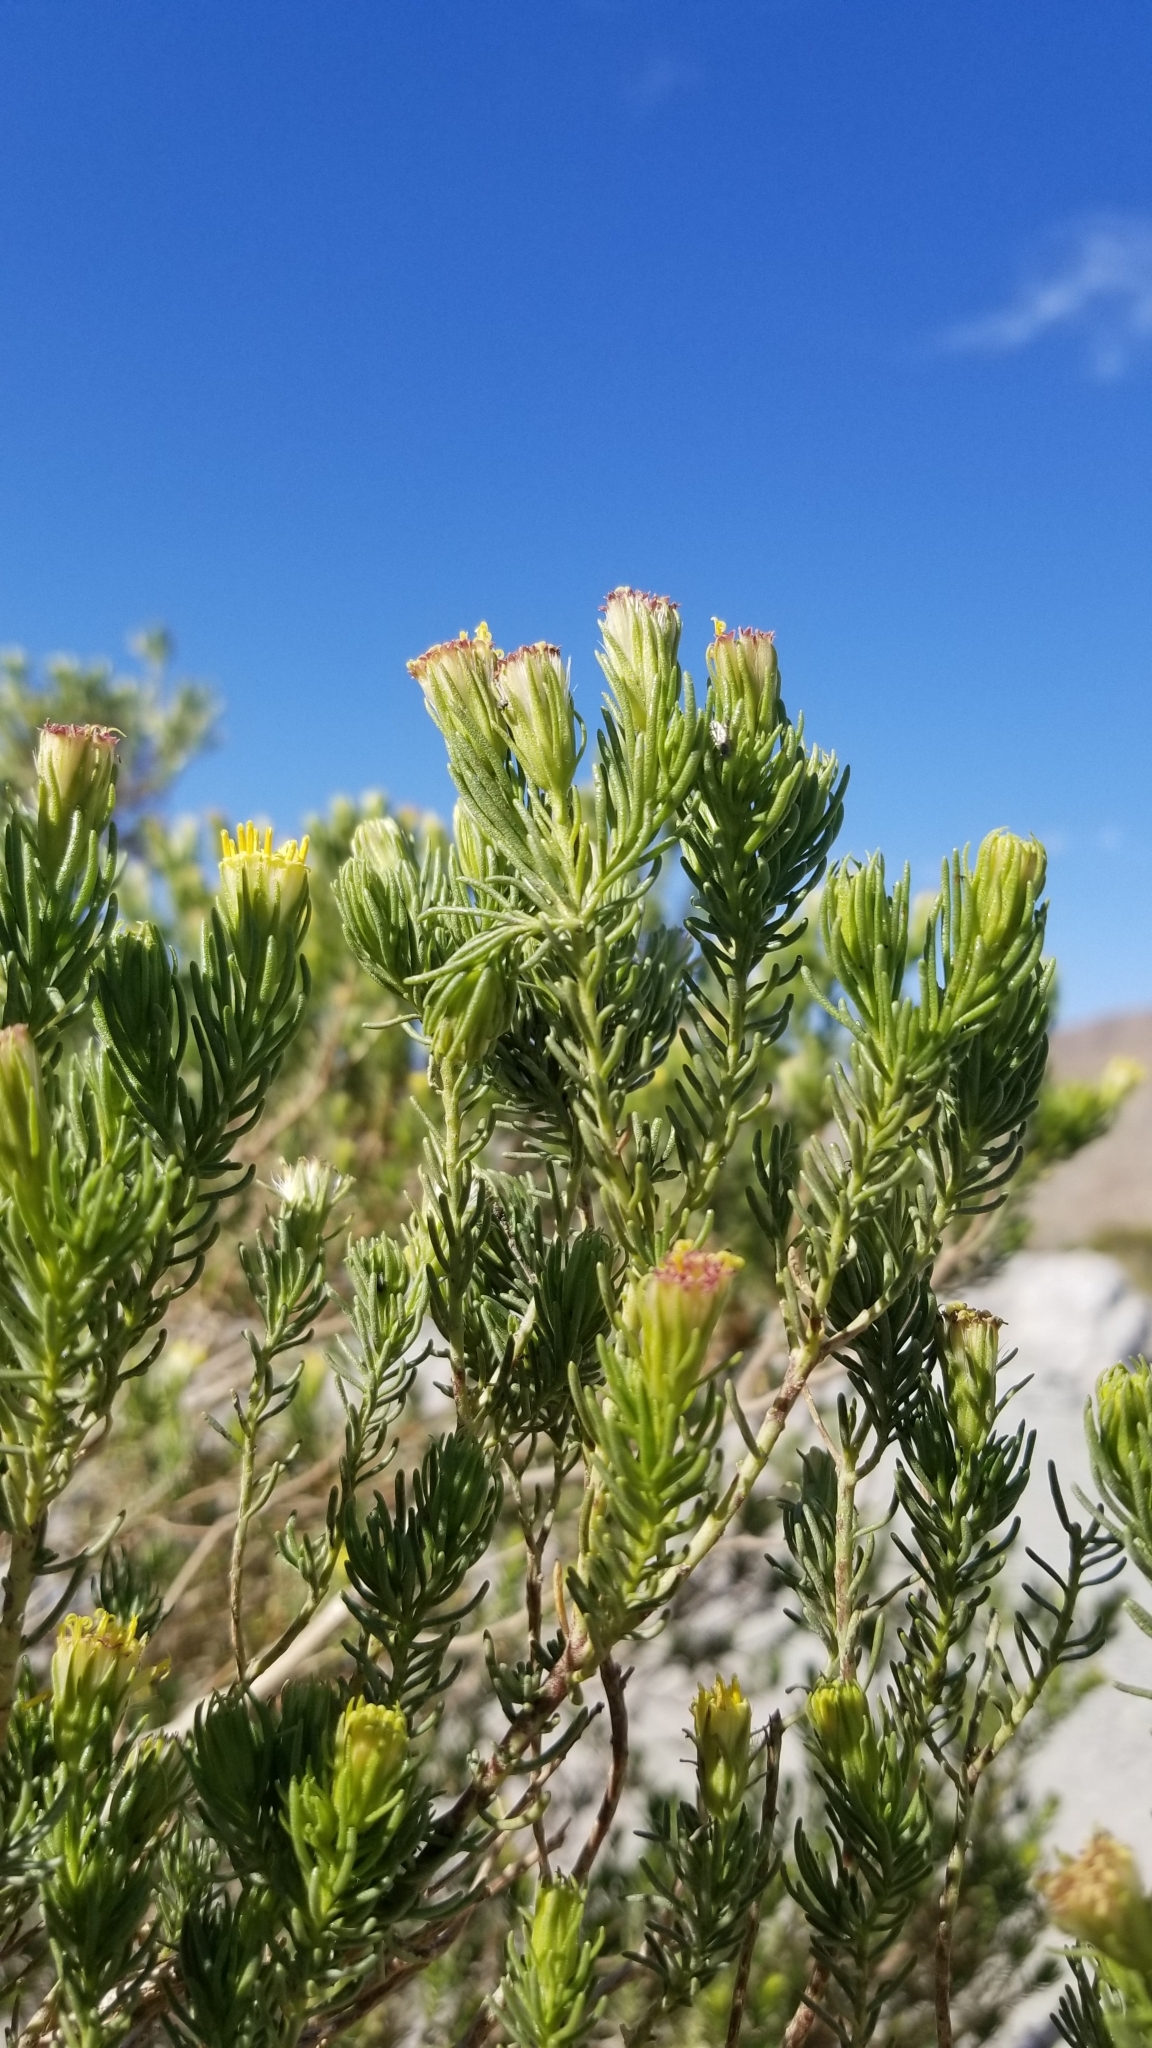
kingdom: Plantae
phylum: Tracheophyta
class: Magnoliopsida
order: Asterales
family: Asteraceae
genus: Peucephyllum
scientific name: Peucephyllum schottii
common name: Pygmy-cedar
